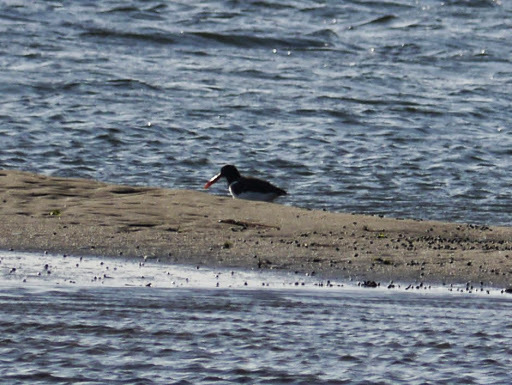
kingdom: Animalia
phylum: Chordata
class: Aves
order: Charadriiformes
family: Haematopodidae
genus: Haematopus
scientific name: Haematopus palliatus
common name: American oystercatcher
